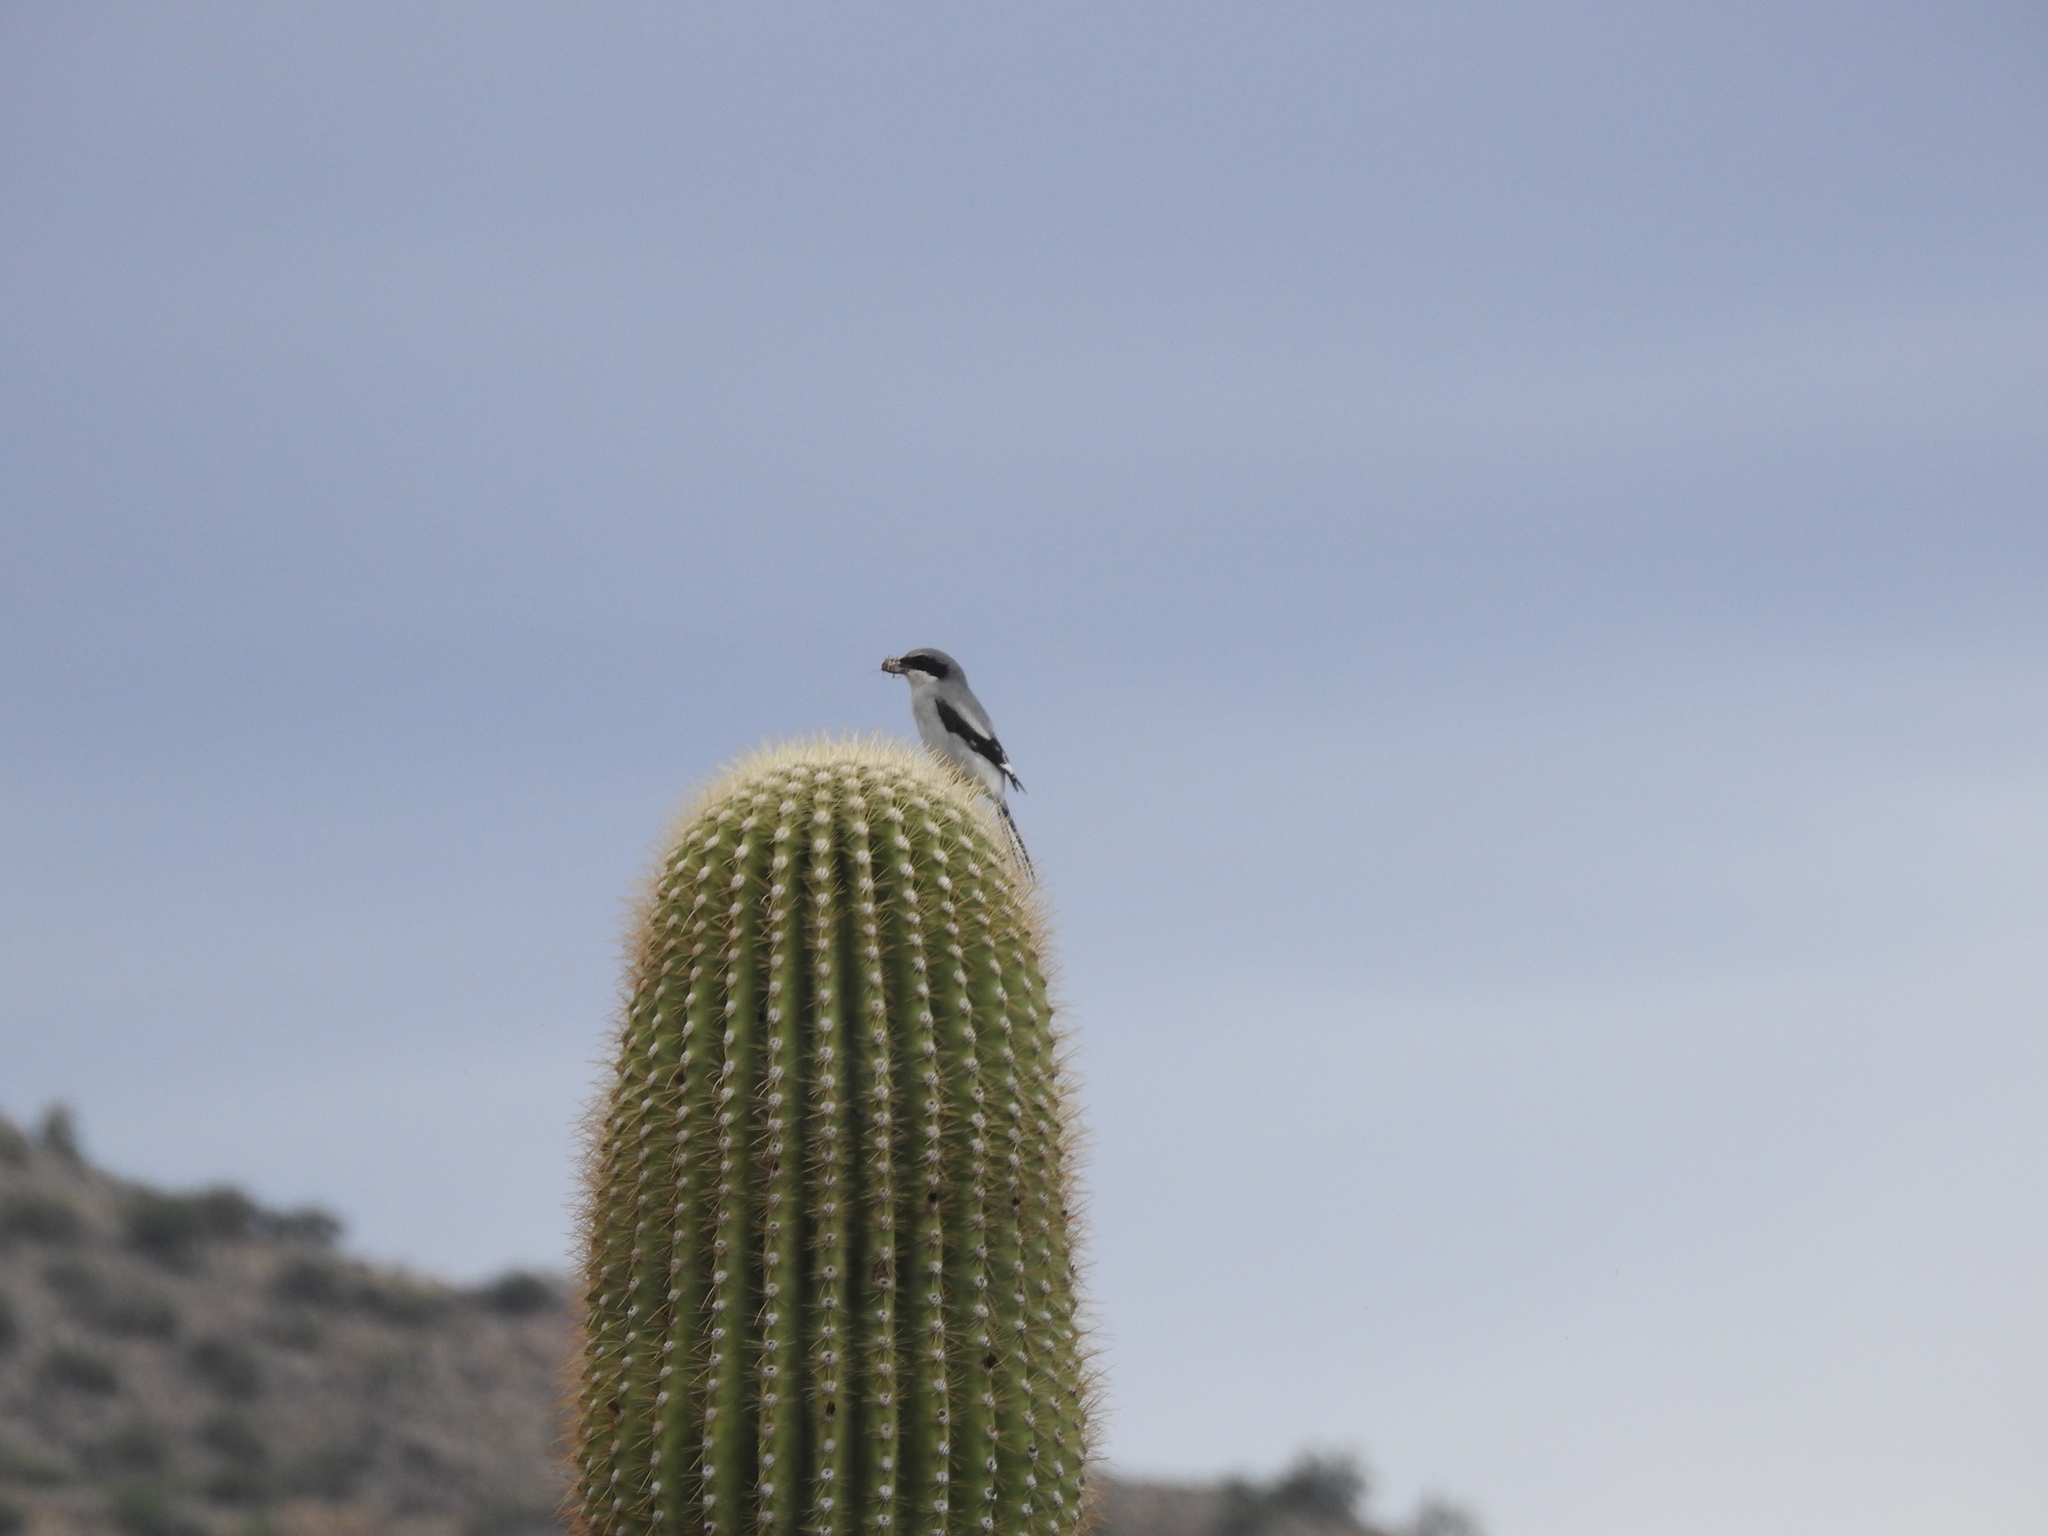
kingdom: Animalia
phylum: Chordata
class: Aves
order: Passeriformes
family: Laniidae
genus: Lanius
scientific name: Lanius ludovicianus
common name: Loggerhead shrike
